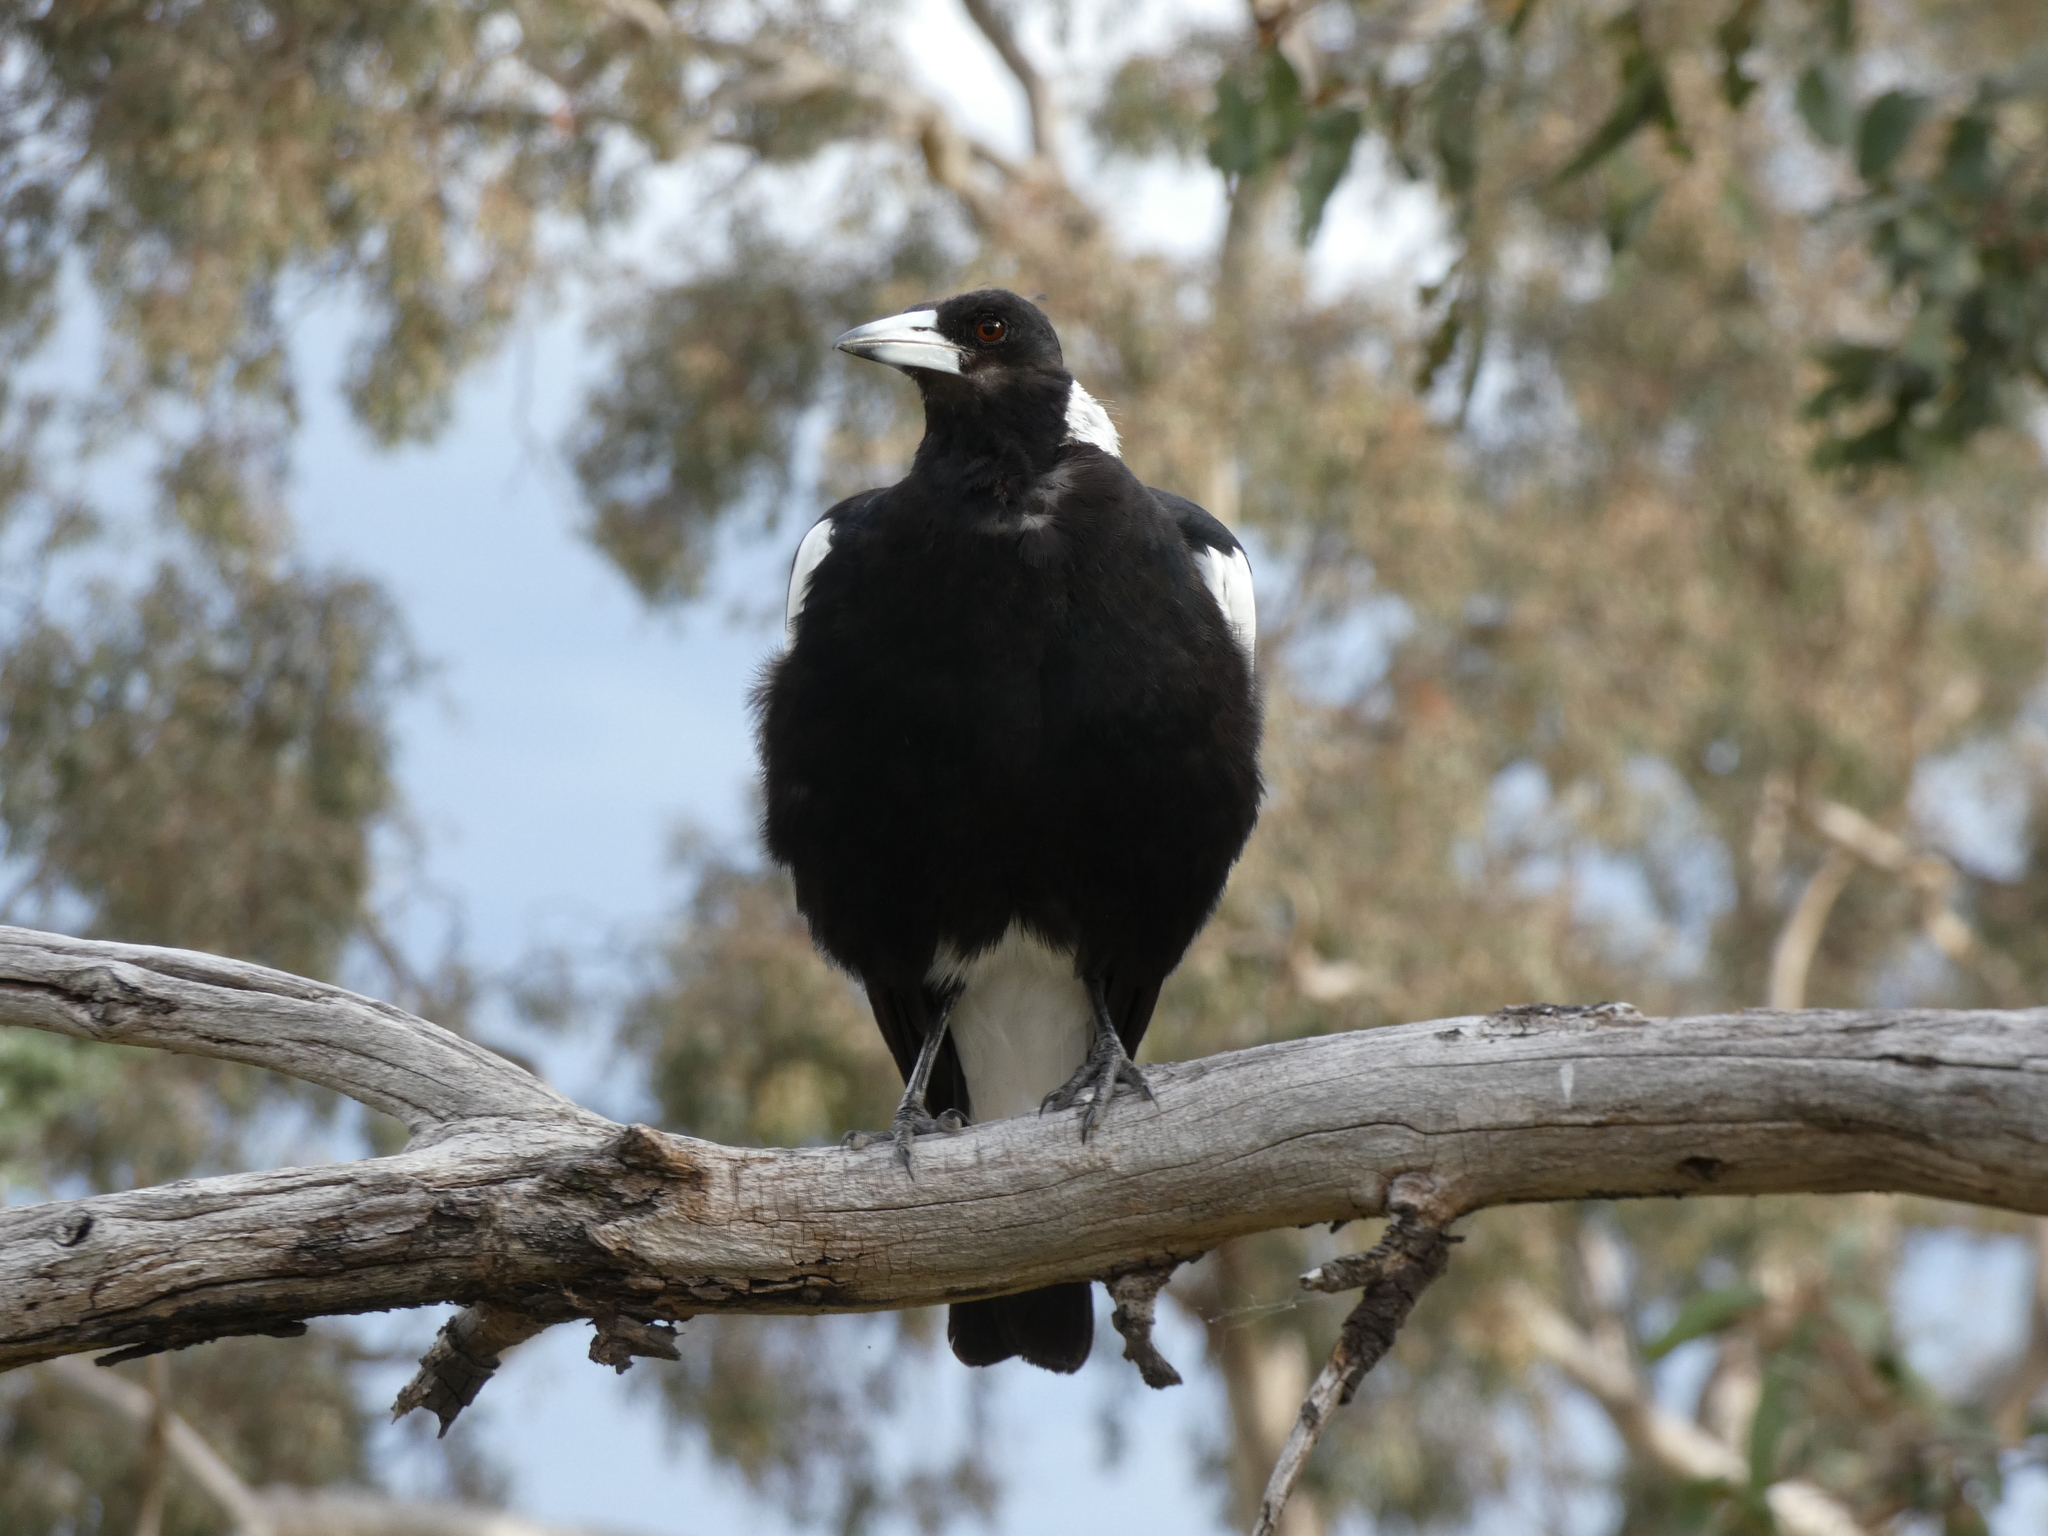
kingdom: Animalia
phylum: Chordata
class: Aves
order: Passeriformes
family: Cracticidae
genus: Gymnorhina
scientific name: Gymnorhina tibicen
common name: Australian magpie
